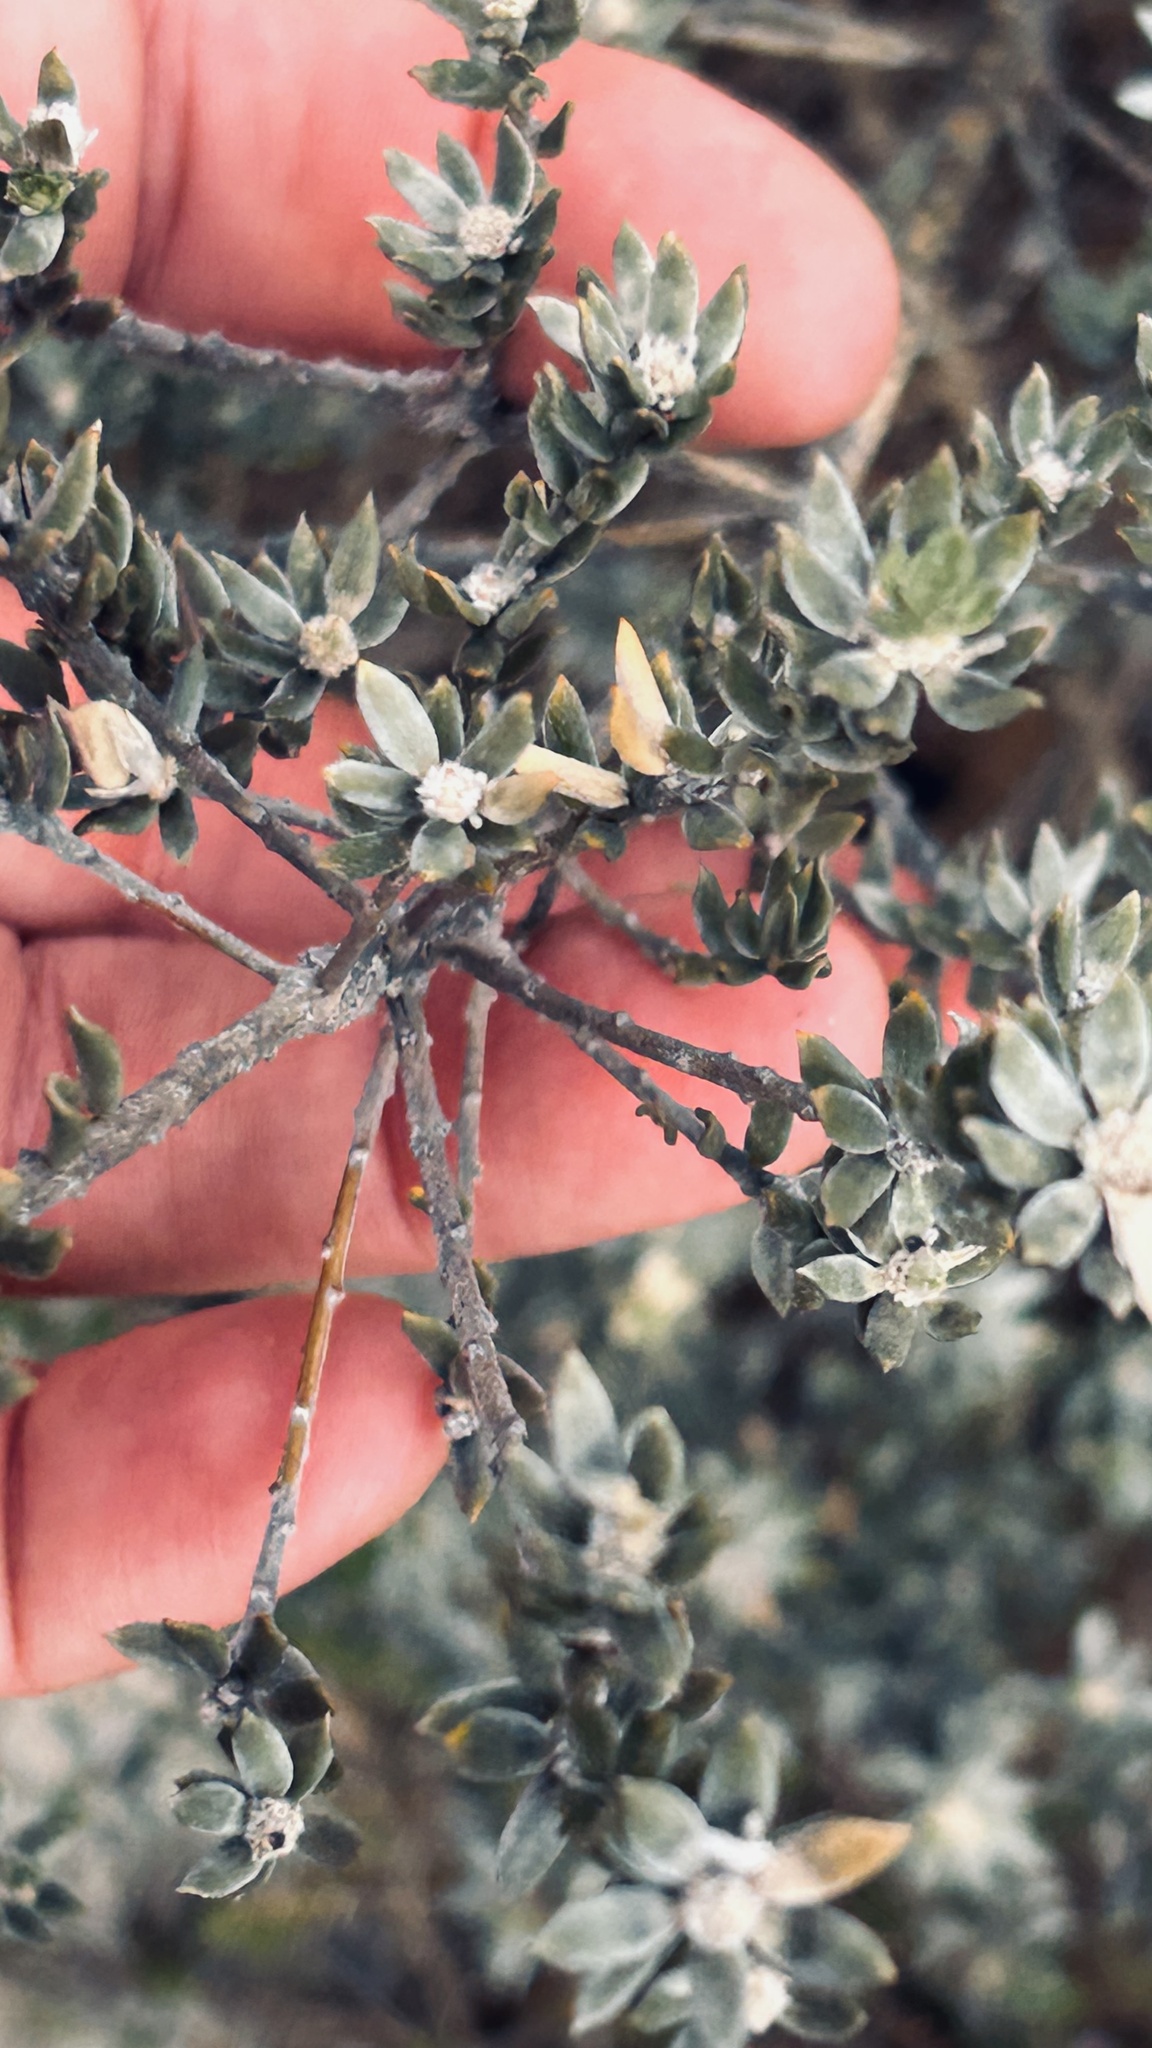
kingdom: Plantae
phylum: Tracheophyta
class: Magnoliopsida
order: Fabales
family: Fabaceae
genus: Amphithalea
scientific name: Amphithalea alba
